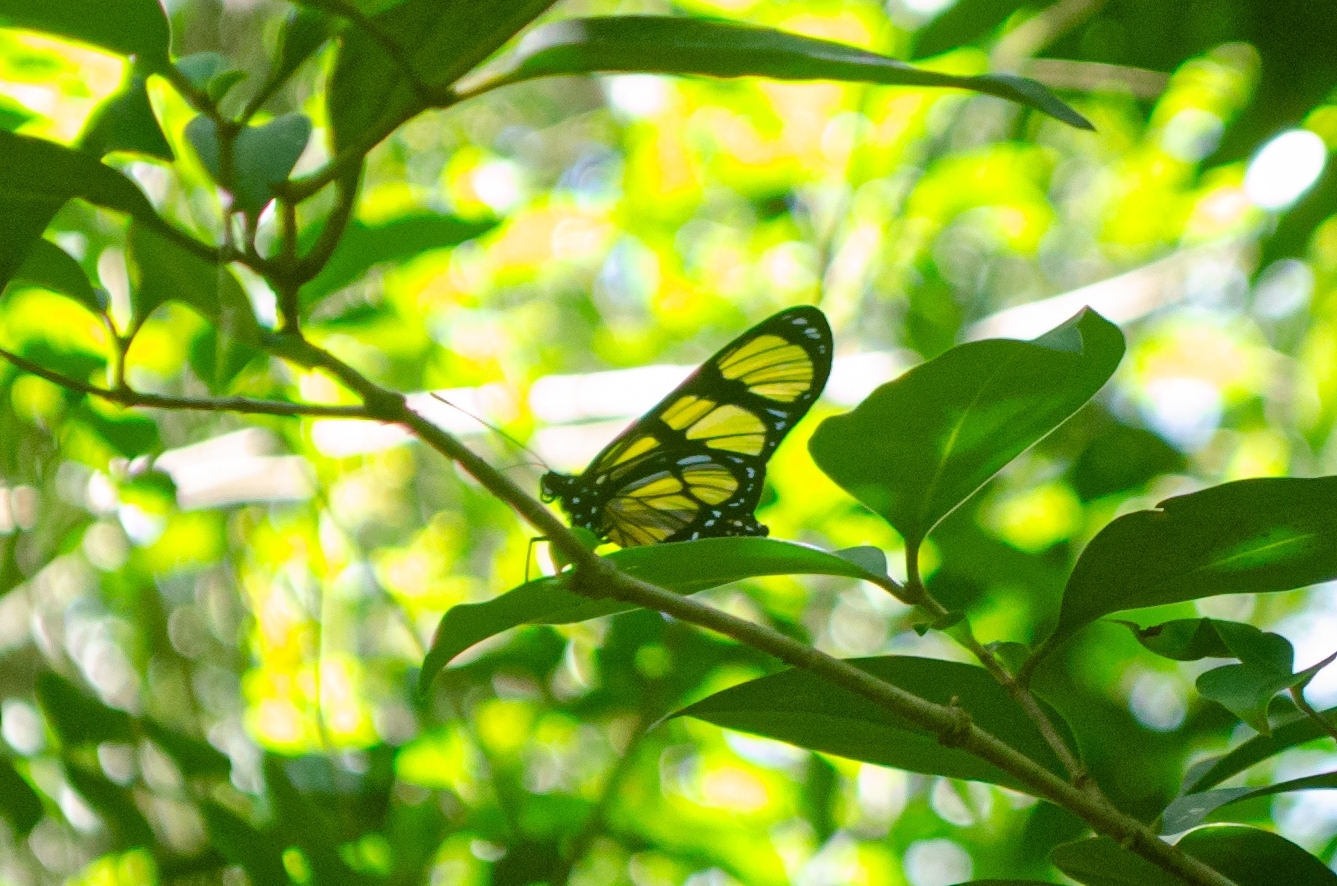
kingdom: Animalia
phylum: Arthropoda
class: Insecta
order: Lepidoptera
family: Nymphalidae
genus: Methona
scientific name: Methona themisto
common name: Themisto amberwing
